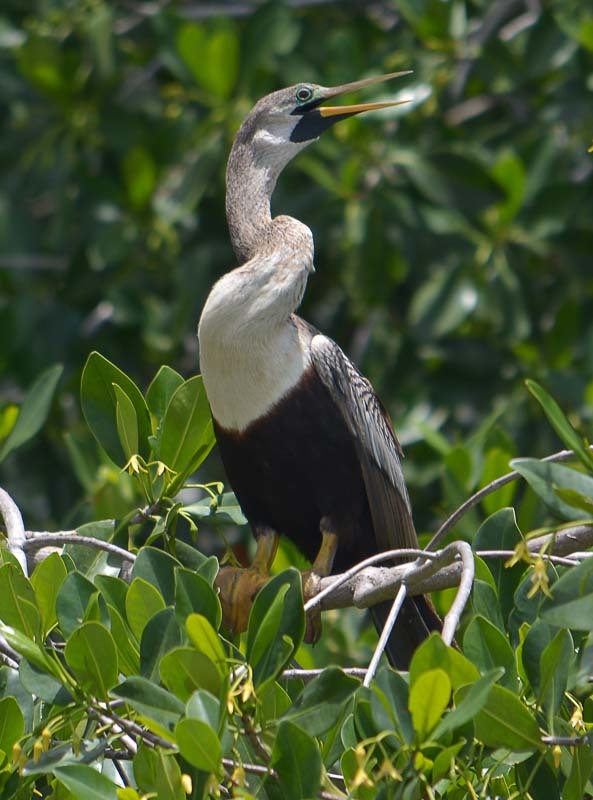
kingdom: Animalia
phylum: Chordata
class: Aves
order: Suliformes
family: Anhingidae
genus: Anhinga
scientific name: Anhinga anhinga
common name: Anhinga
